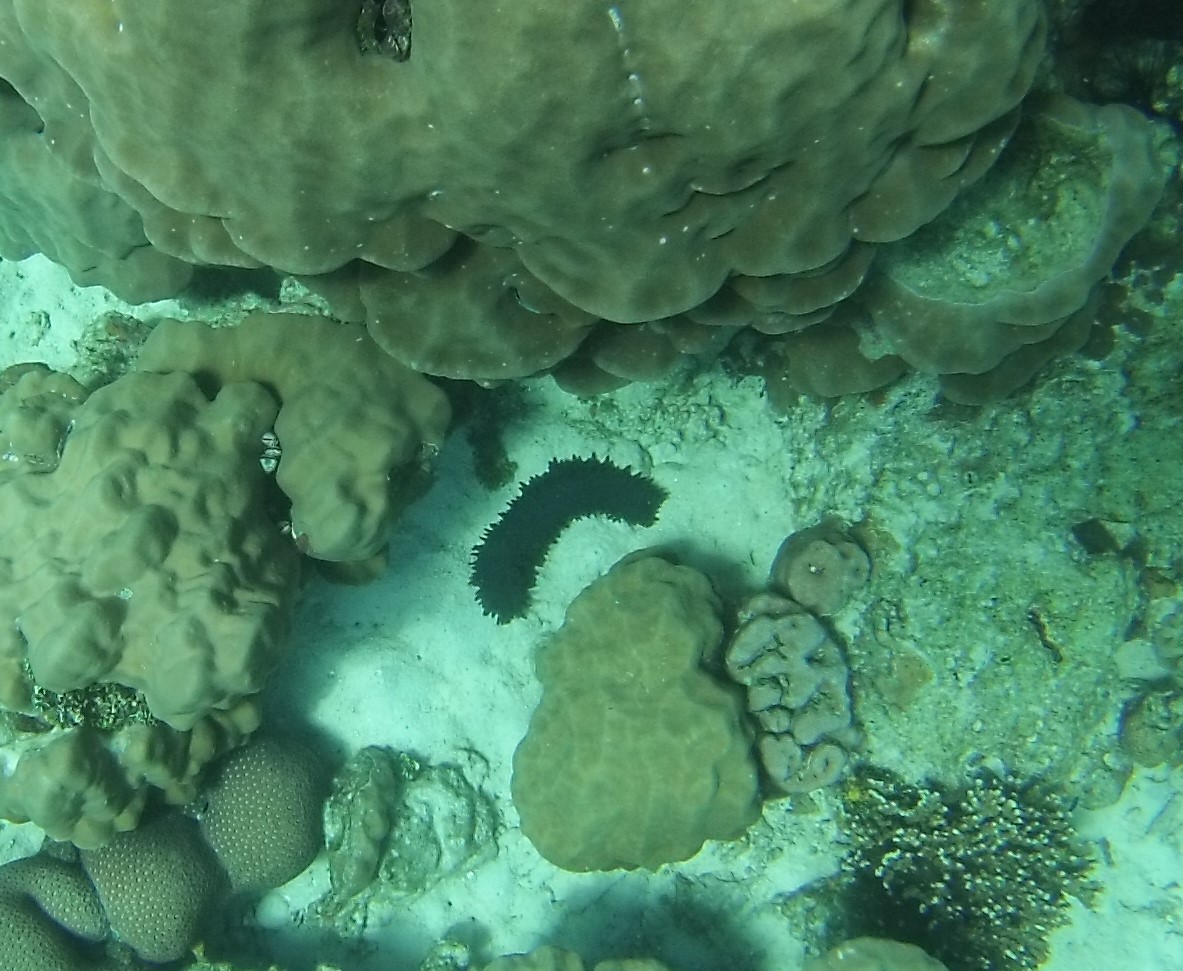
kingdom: Animalia
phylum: Echinodermata
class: Holothuroidea
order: Synallactida
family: Stichopodidae
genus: Stichopus
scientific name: Stichopus chloronotus
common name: Greenfish
